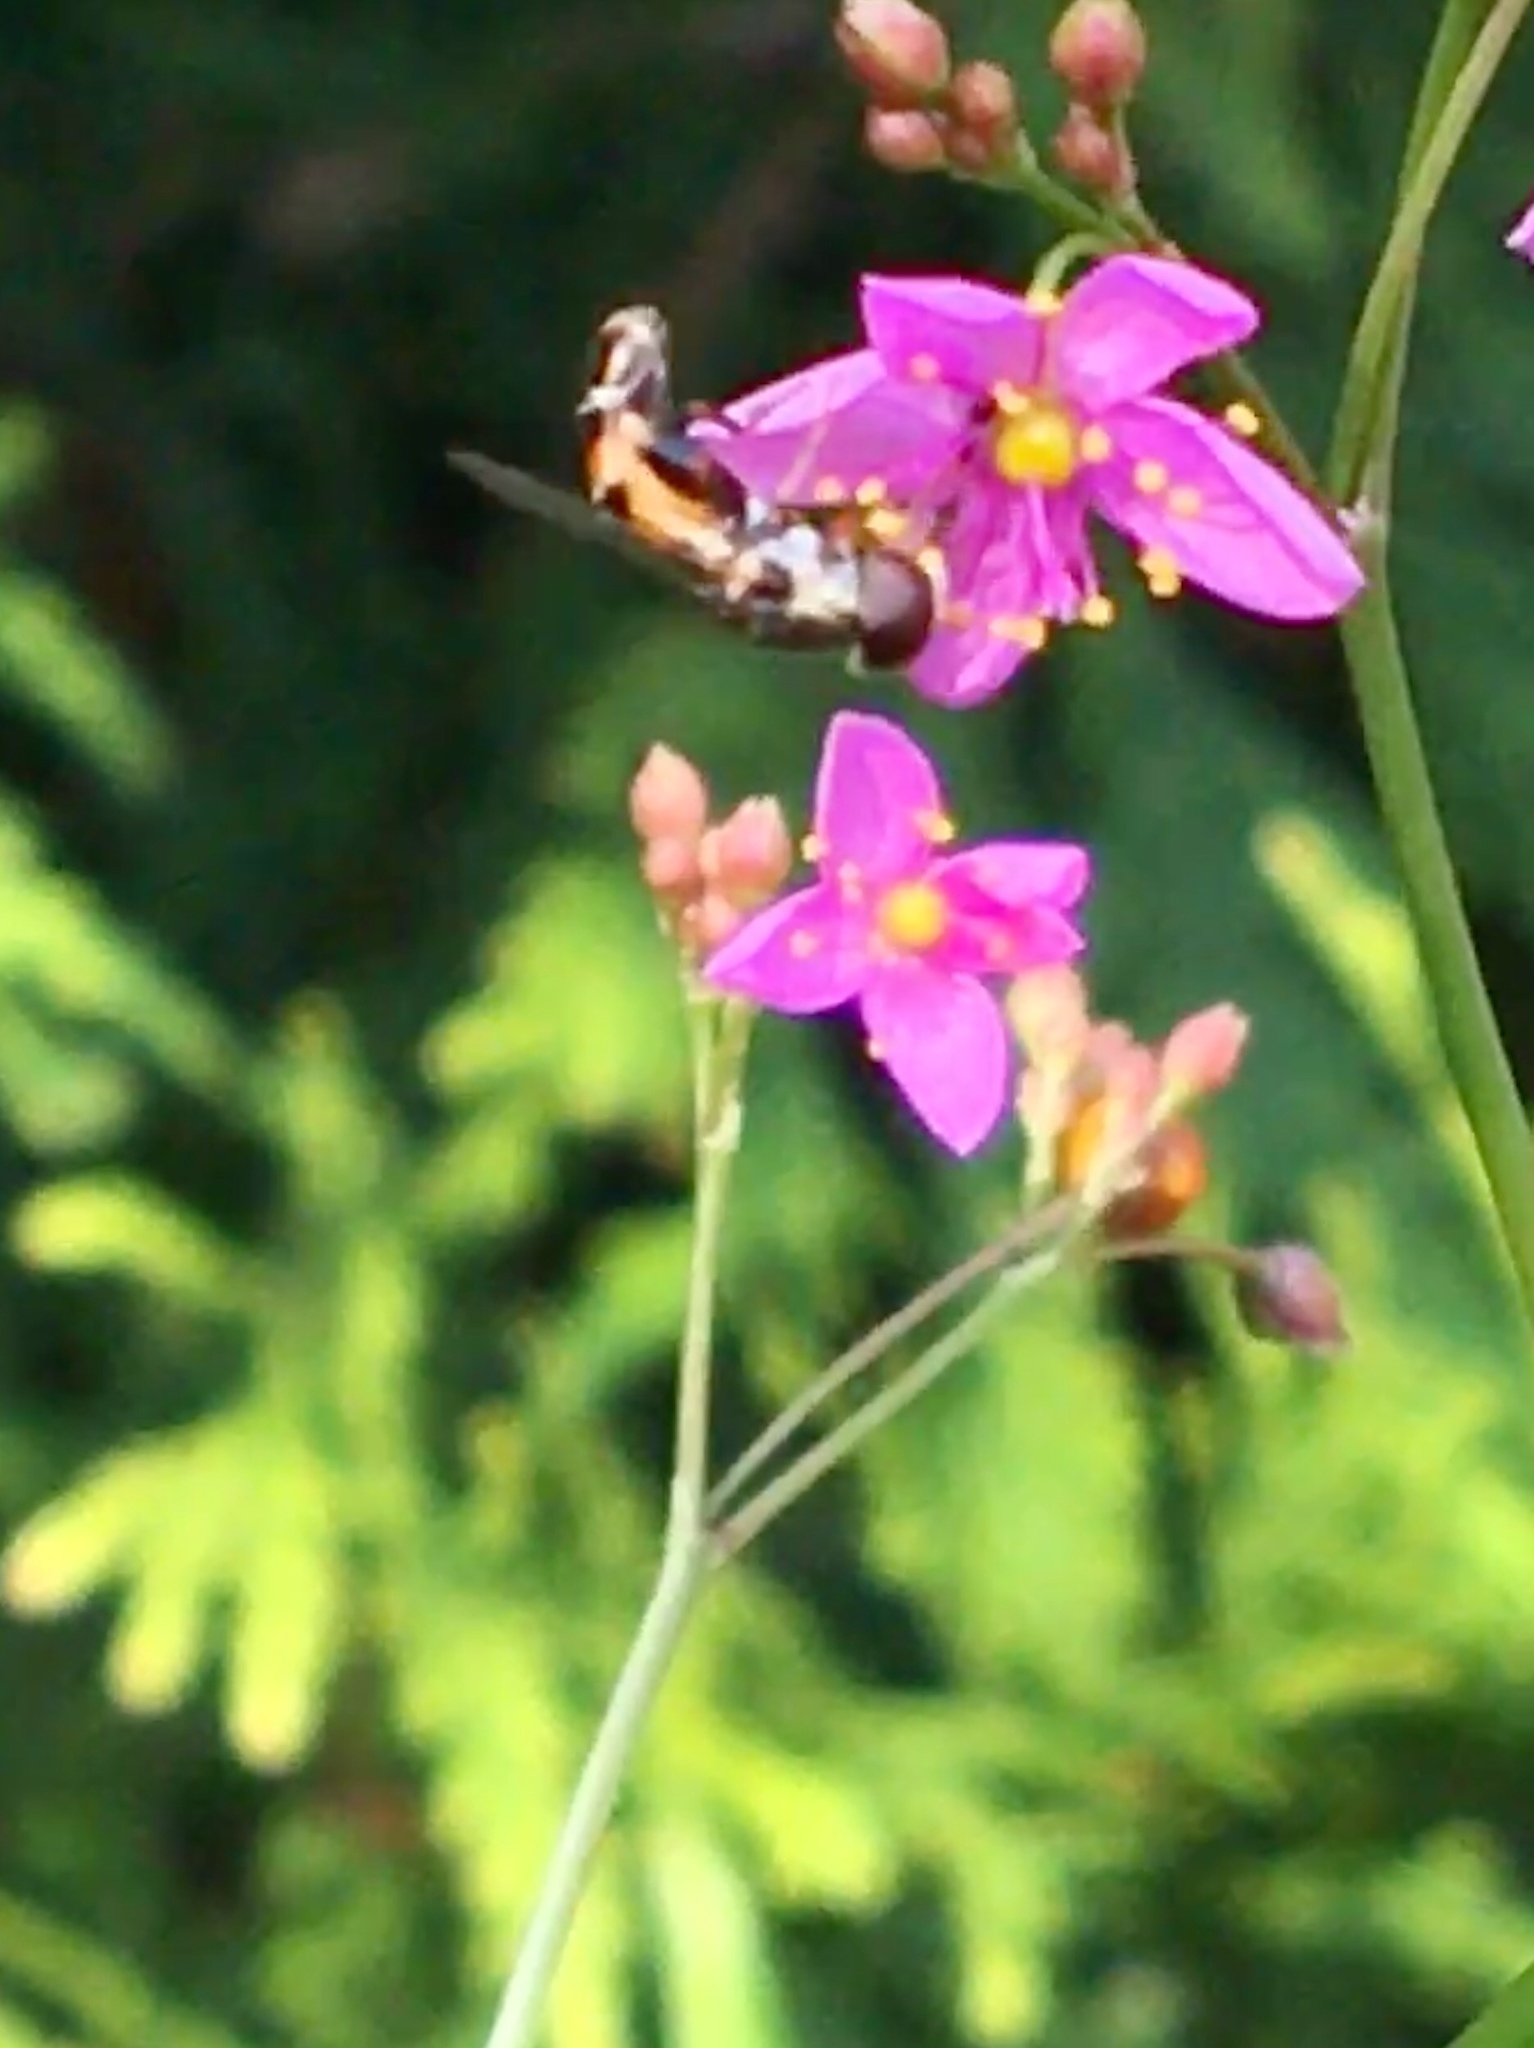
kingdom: Animalia
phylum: Arthropoda
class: Insecta
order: Diptera
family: Syrphidae
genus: Syritta
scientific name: Syritta pipiens
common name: Hover fly
